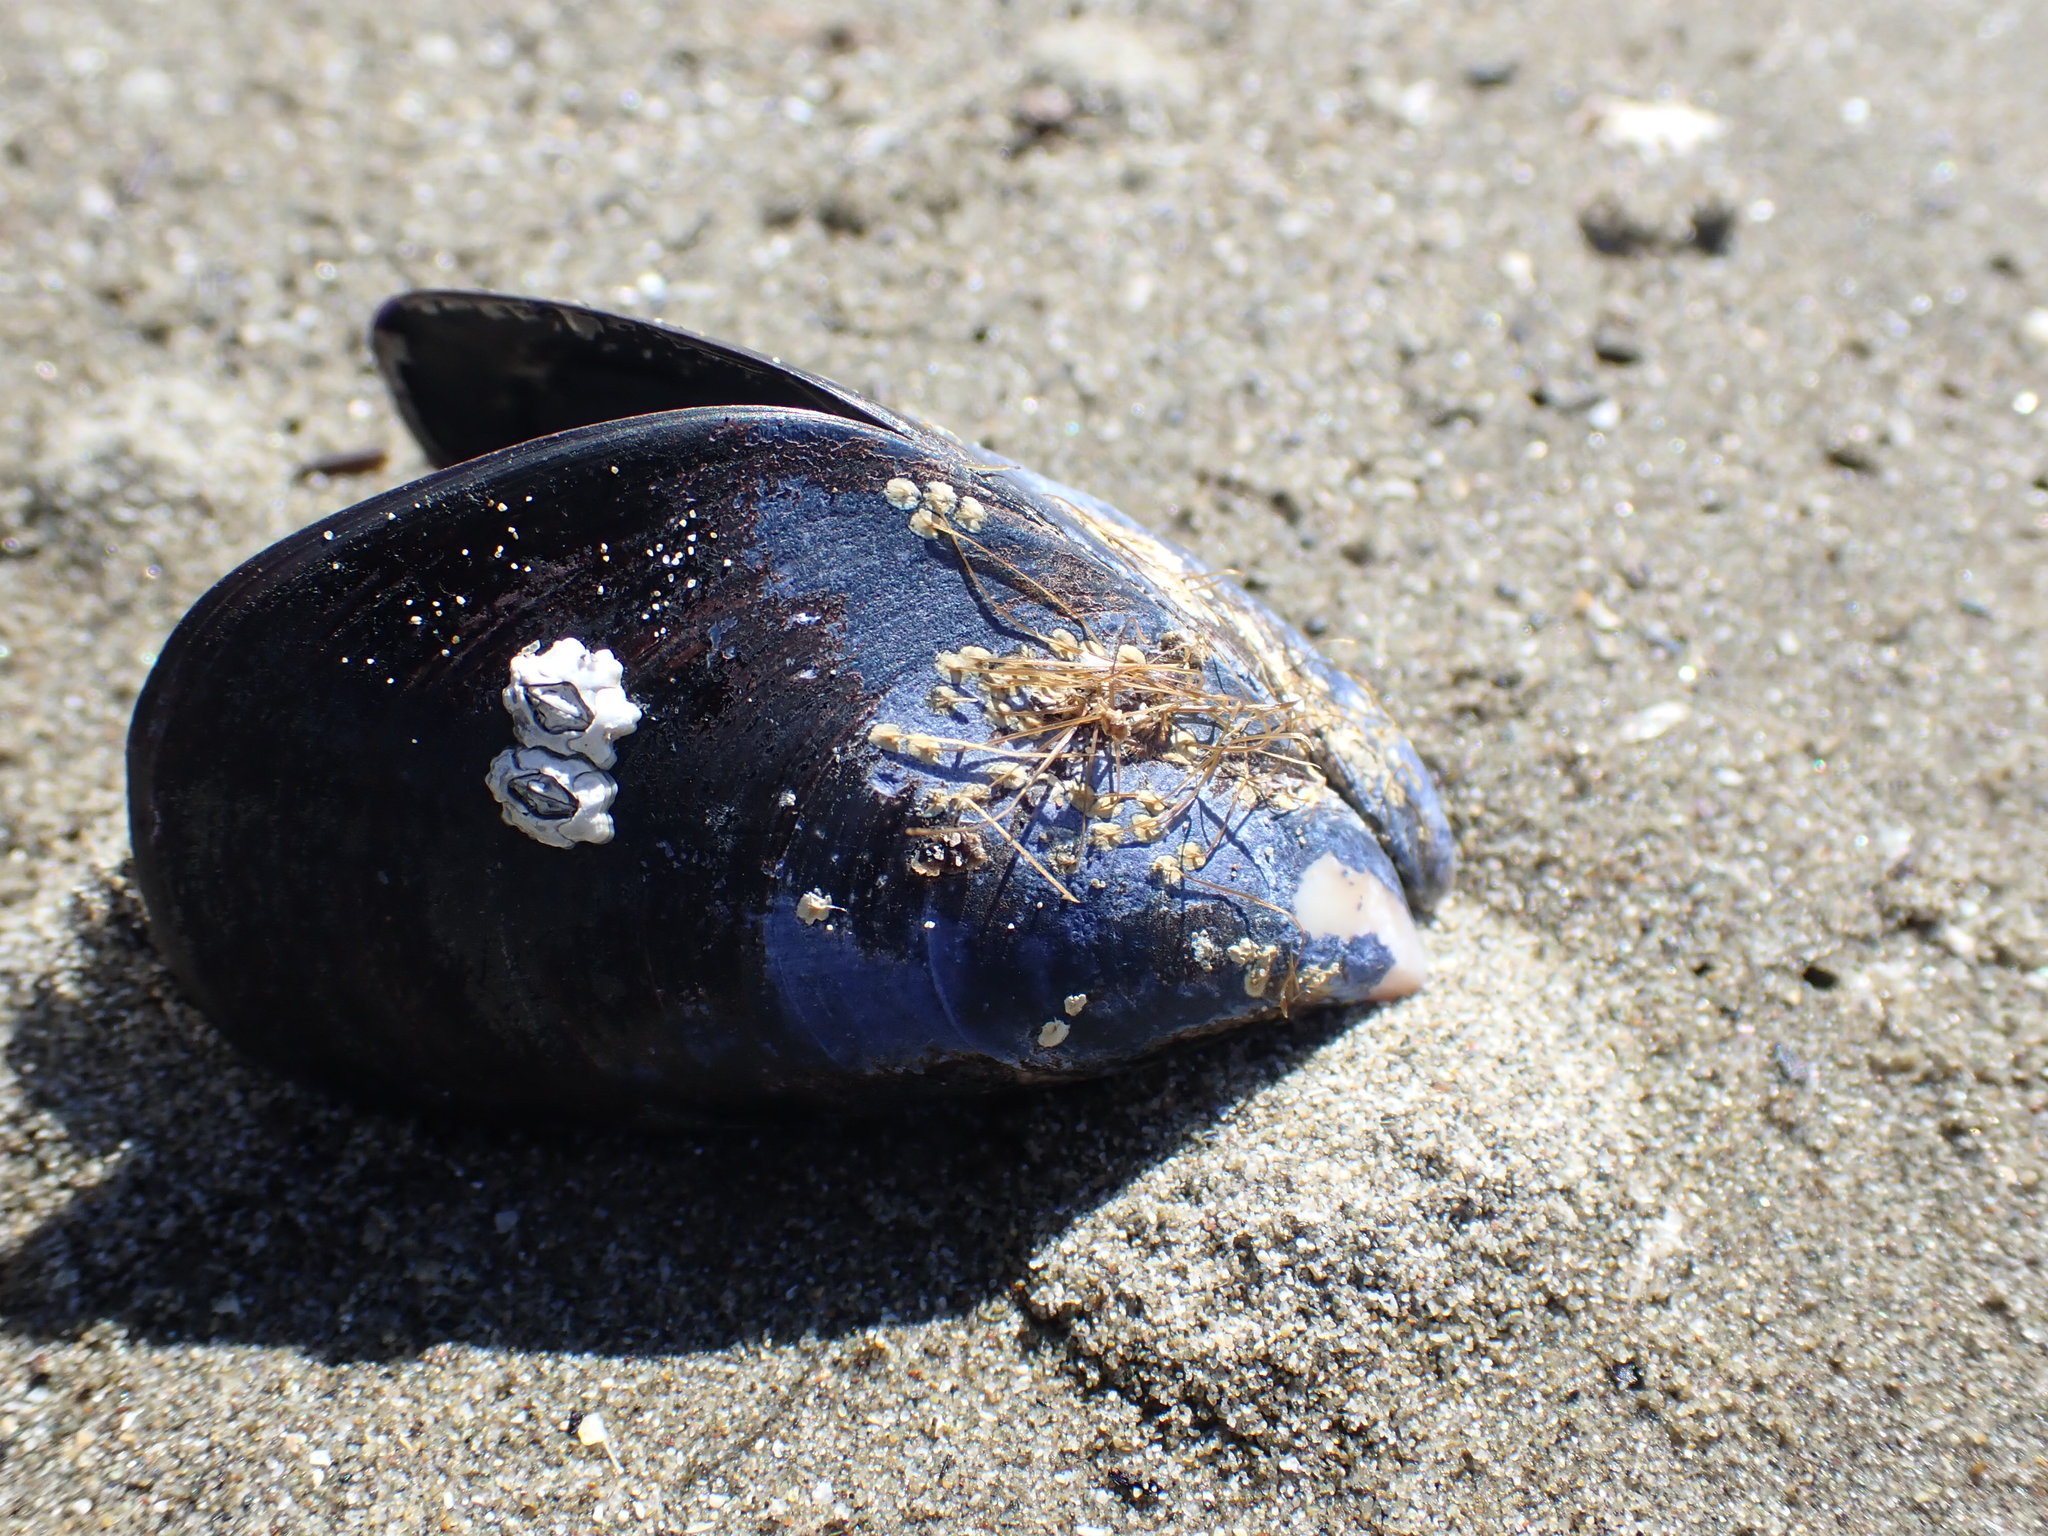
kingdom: Animalia
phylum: Mollusca
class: Bivalvia
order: Mytilida
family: Mytilidae
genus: Mytilus
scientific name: Mytilus planulatus
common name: Australian mussel
